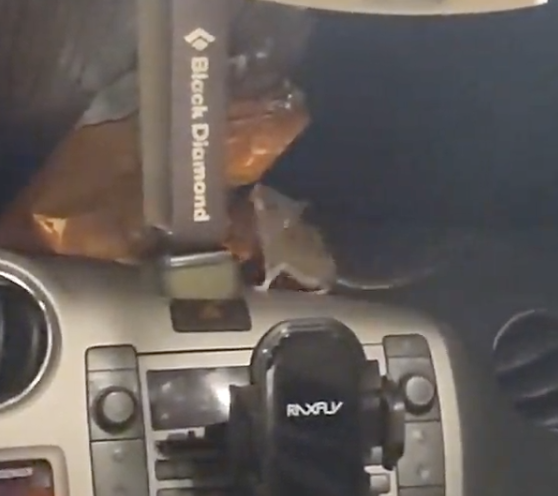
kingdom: Animalia
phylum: Chordata
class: Mammalia
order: Rodentia
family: Cricetidae
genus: Peromyscus
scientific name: Peromyscus maniculatus
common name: Deer mouse
